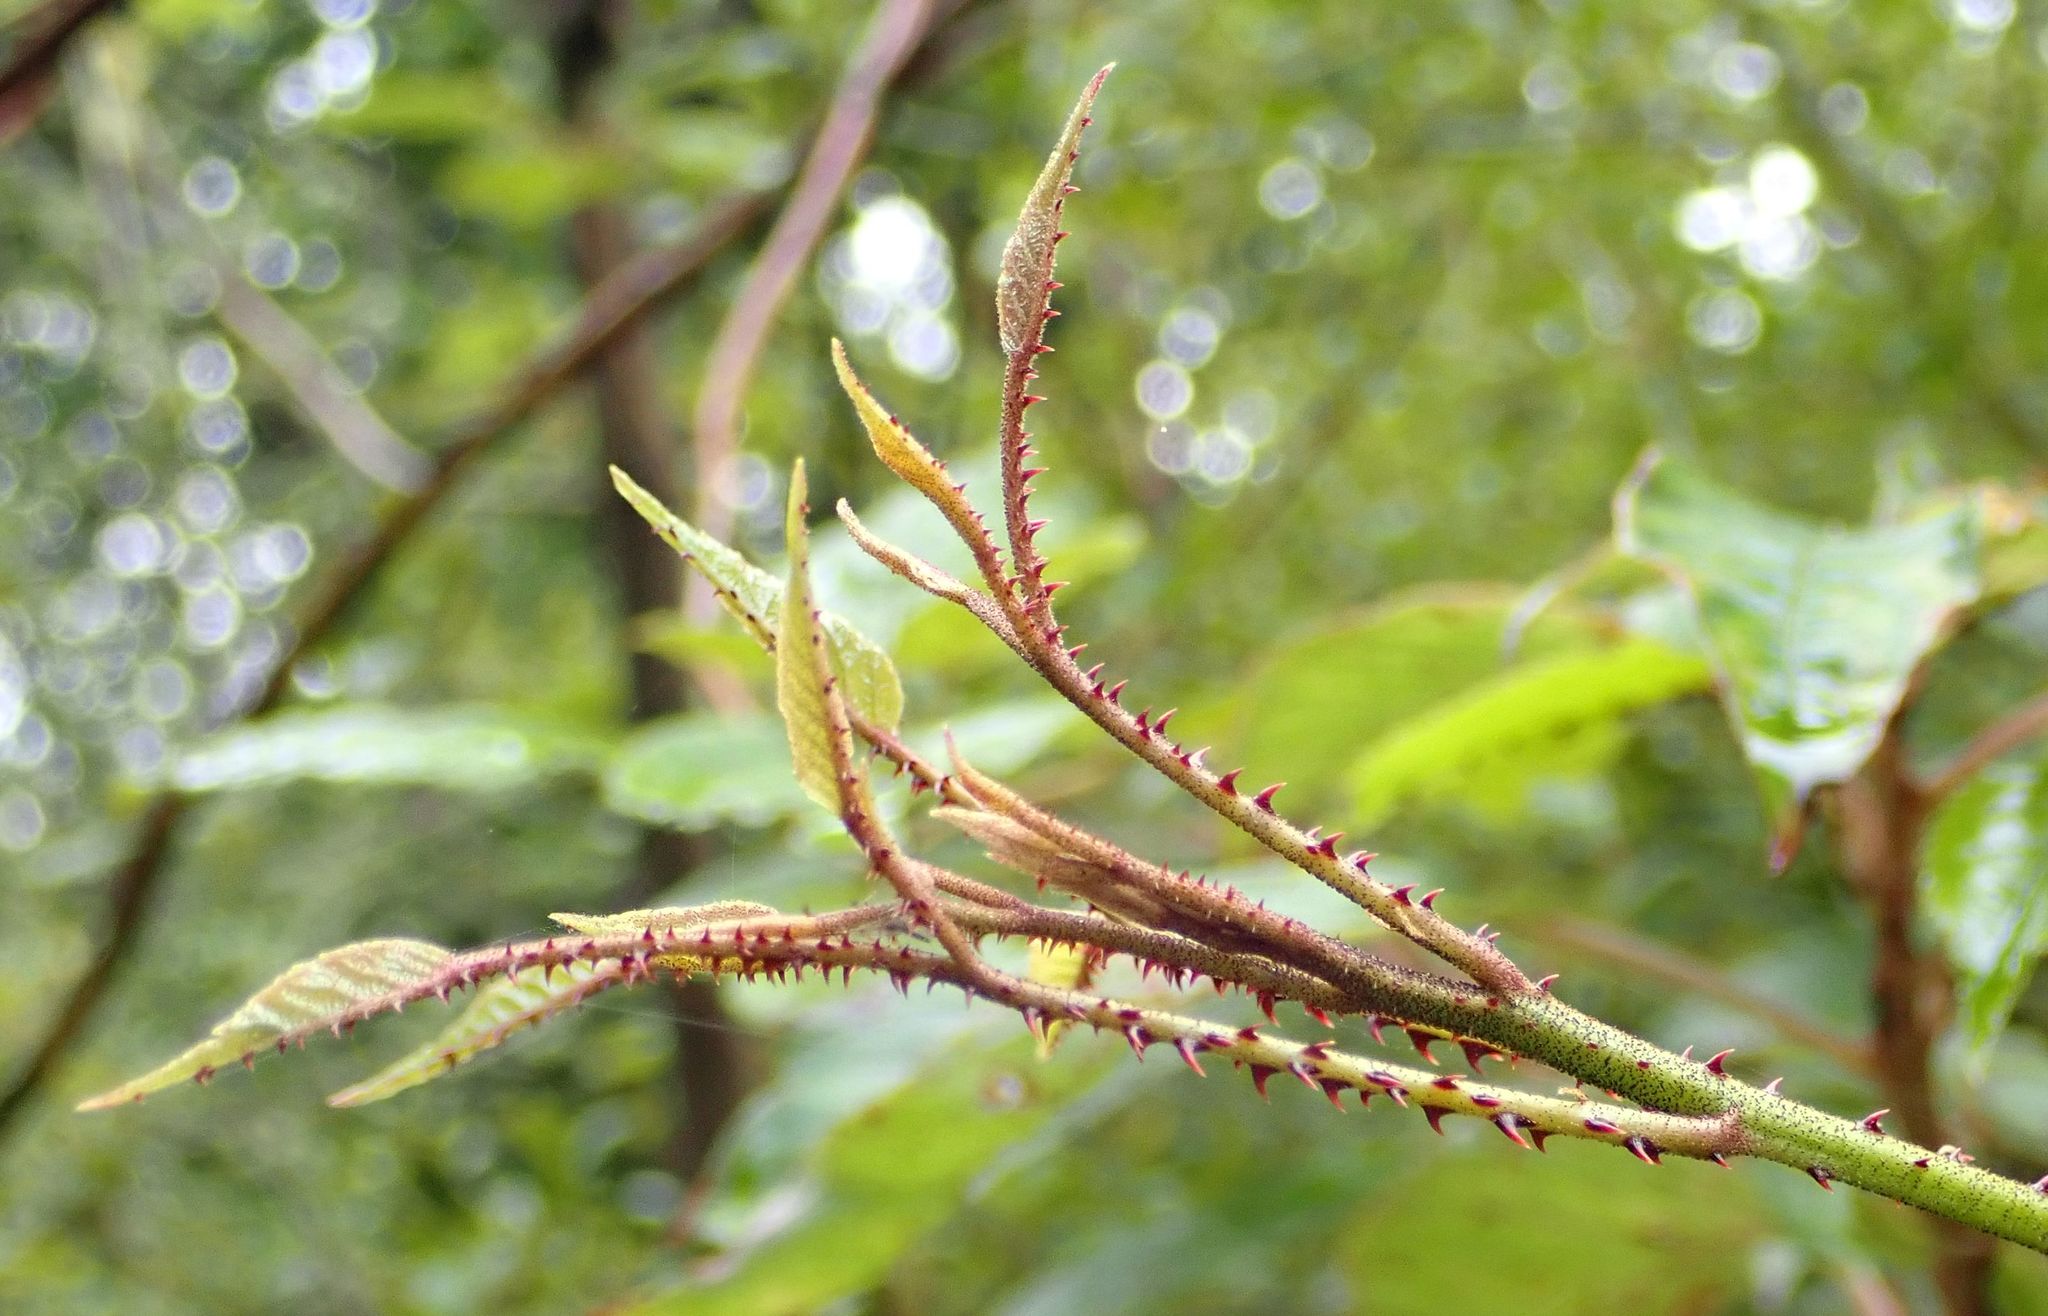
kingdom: Plantae
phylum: Tracheophyta
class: Magnoliopsida
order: Rosales
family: Rosaceae
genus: Rubus
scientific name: Rubus cissoides
